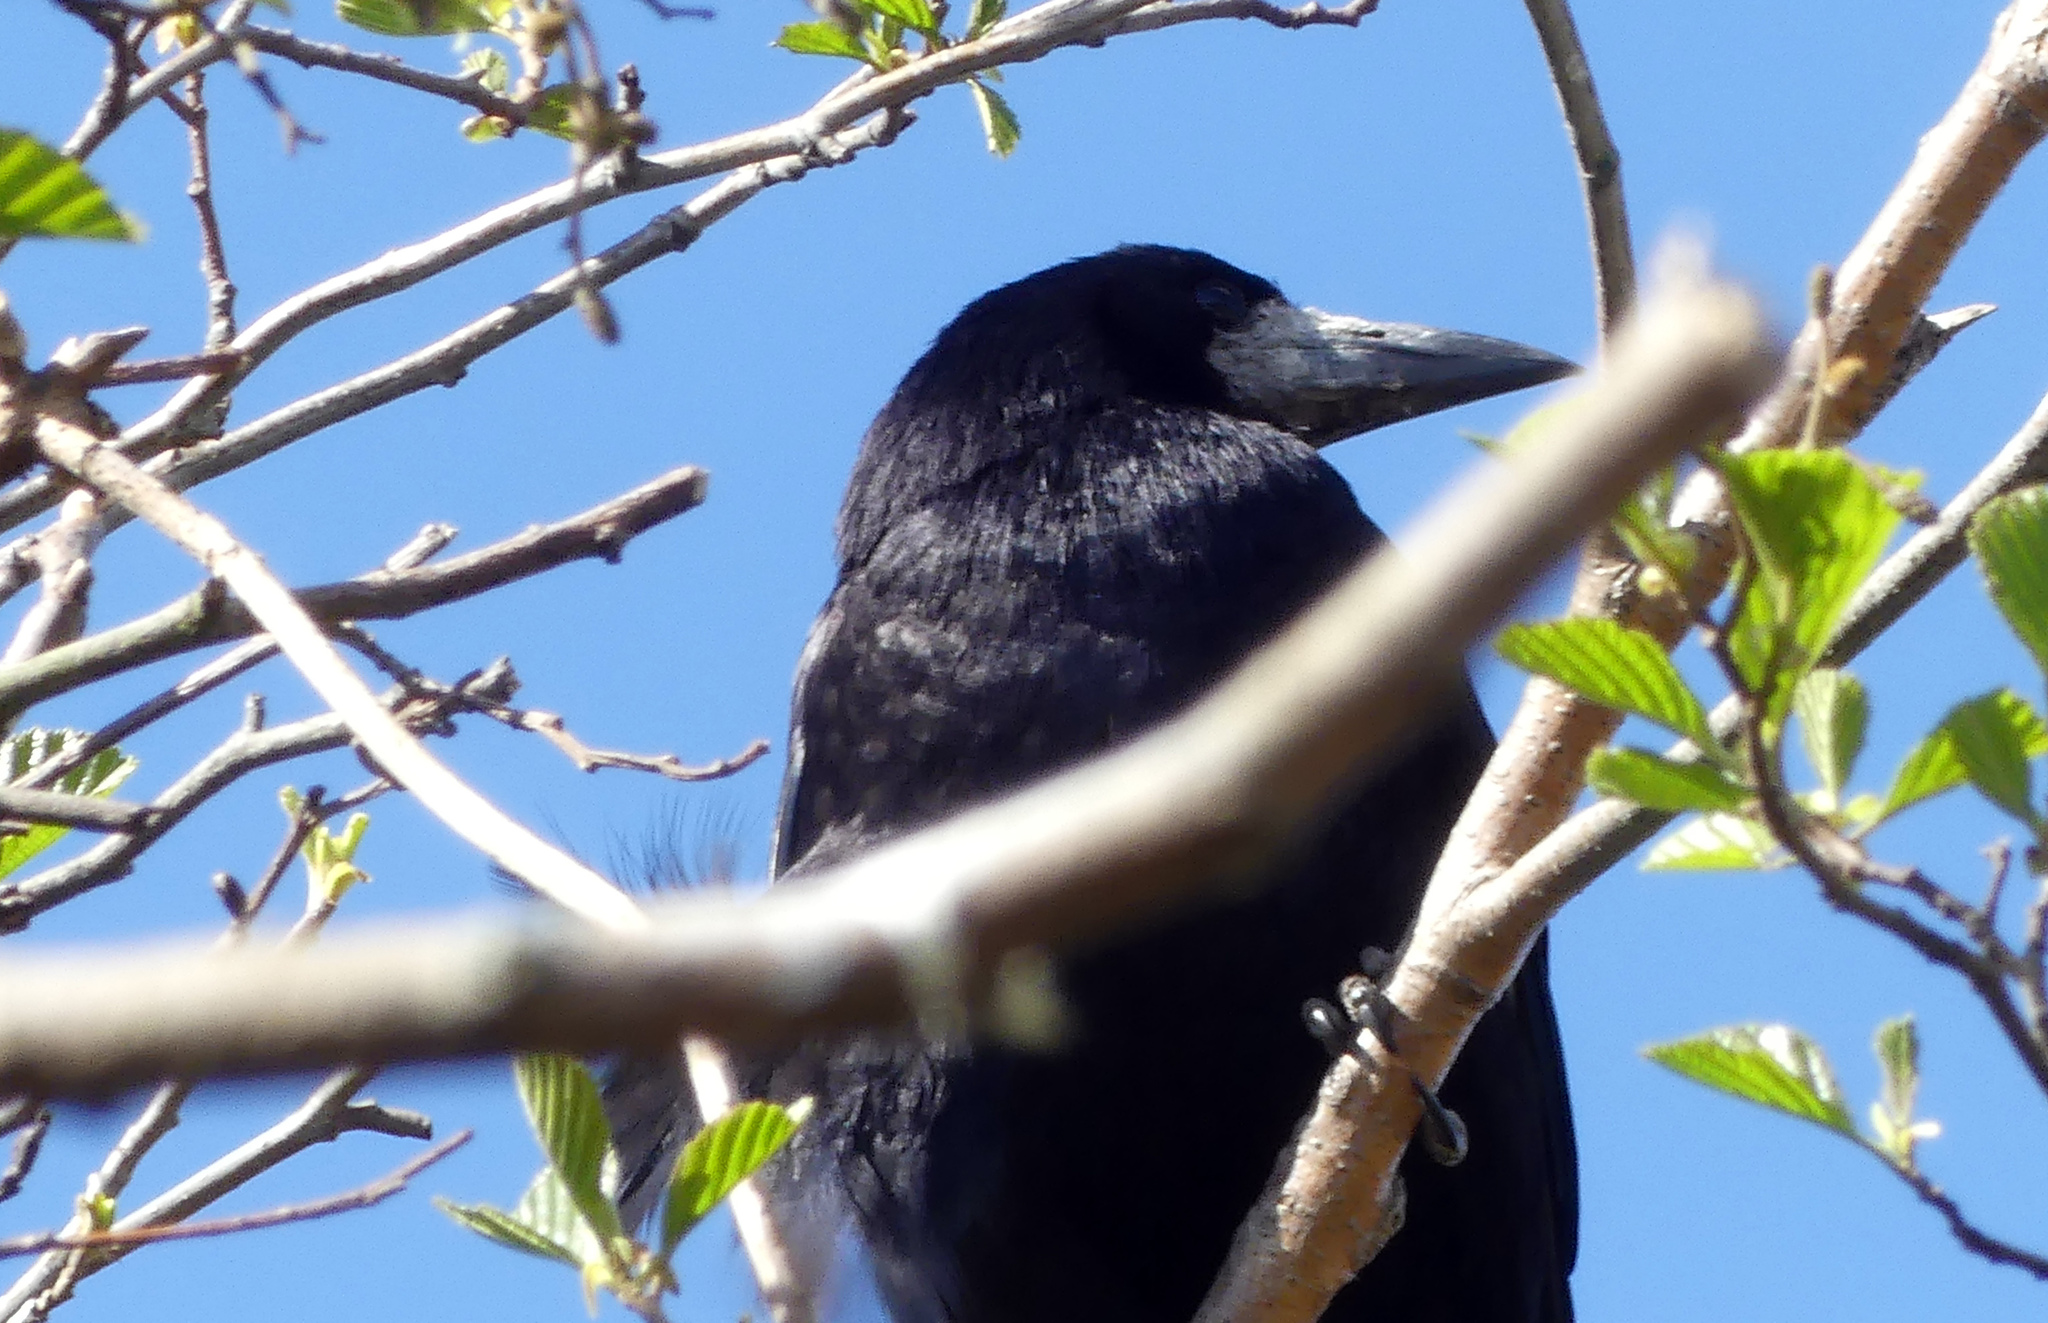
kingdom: Animalia
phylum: Chordata
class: Aves
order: Passeriformes
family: Corvidae
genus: Corvus
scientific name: Corvus frugilegus
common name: Rook
